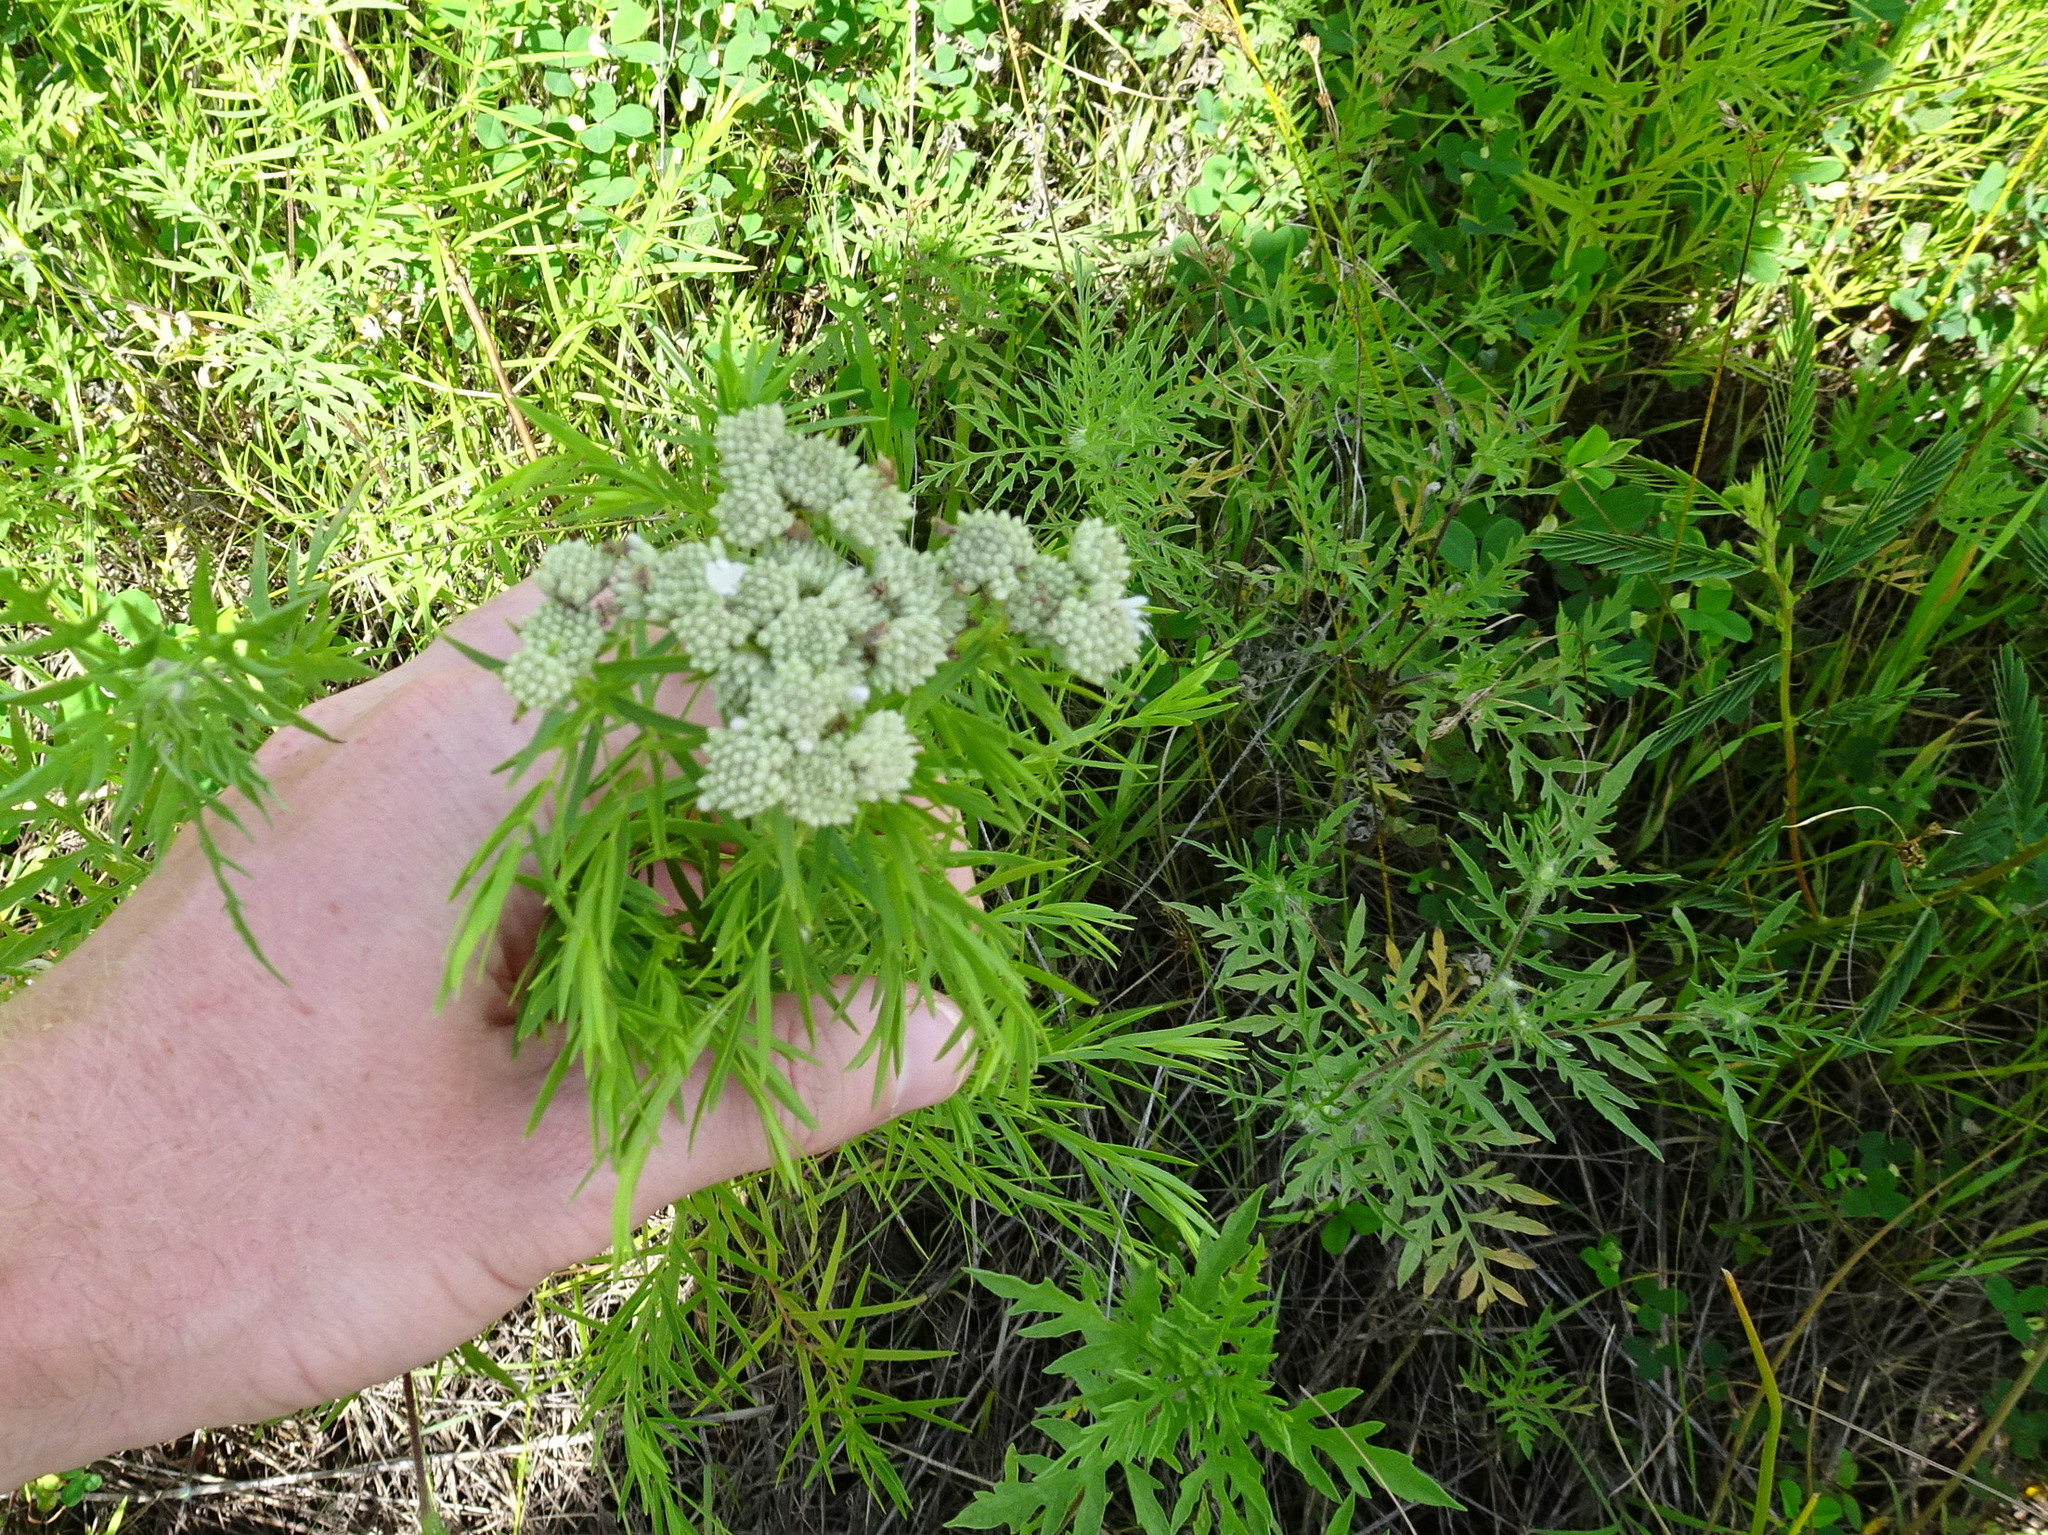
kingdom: Plantae
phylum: Tracheophyta
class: Magnoliopsida
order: Lamiales
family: Lamiaceae
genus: Pycnanthemum
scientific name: Pycnanthemum tenuifolium
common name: Narrow-leaf mountain-mint
